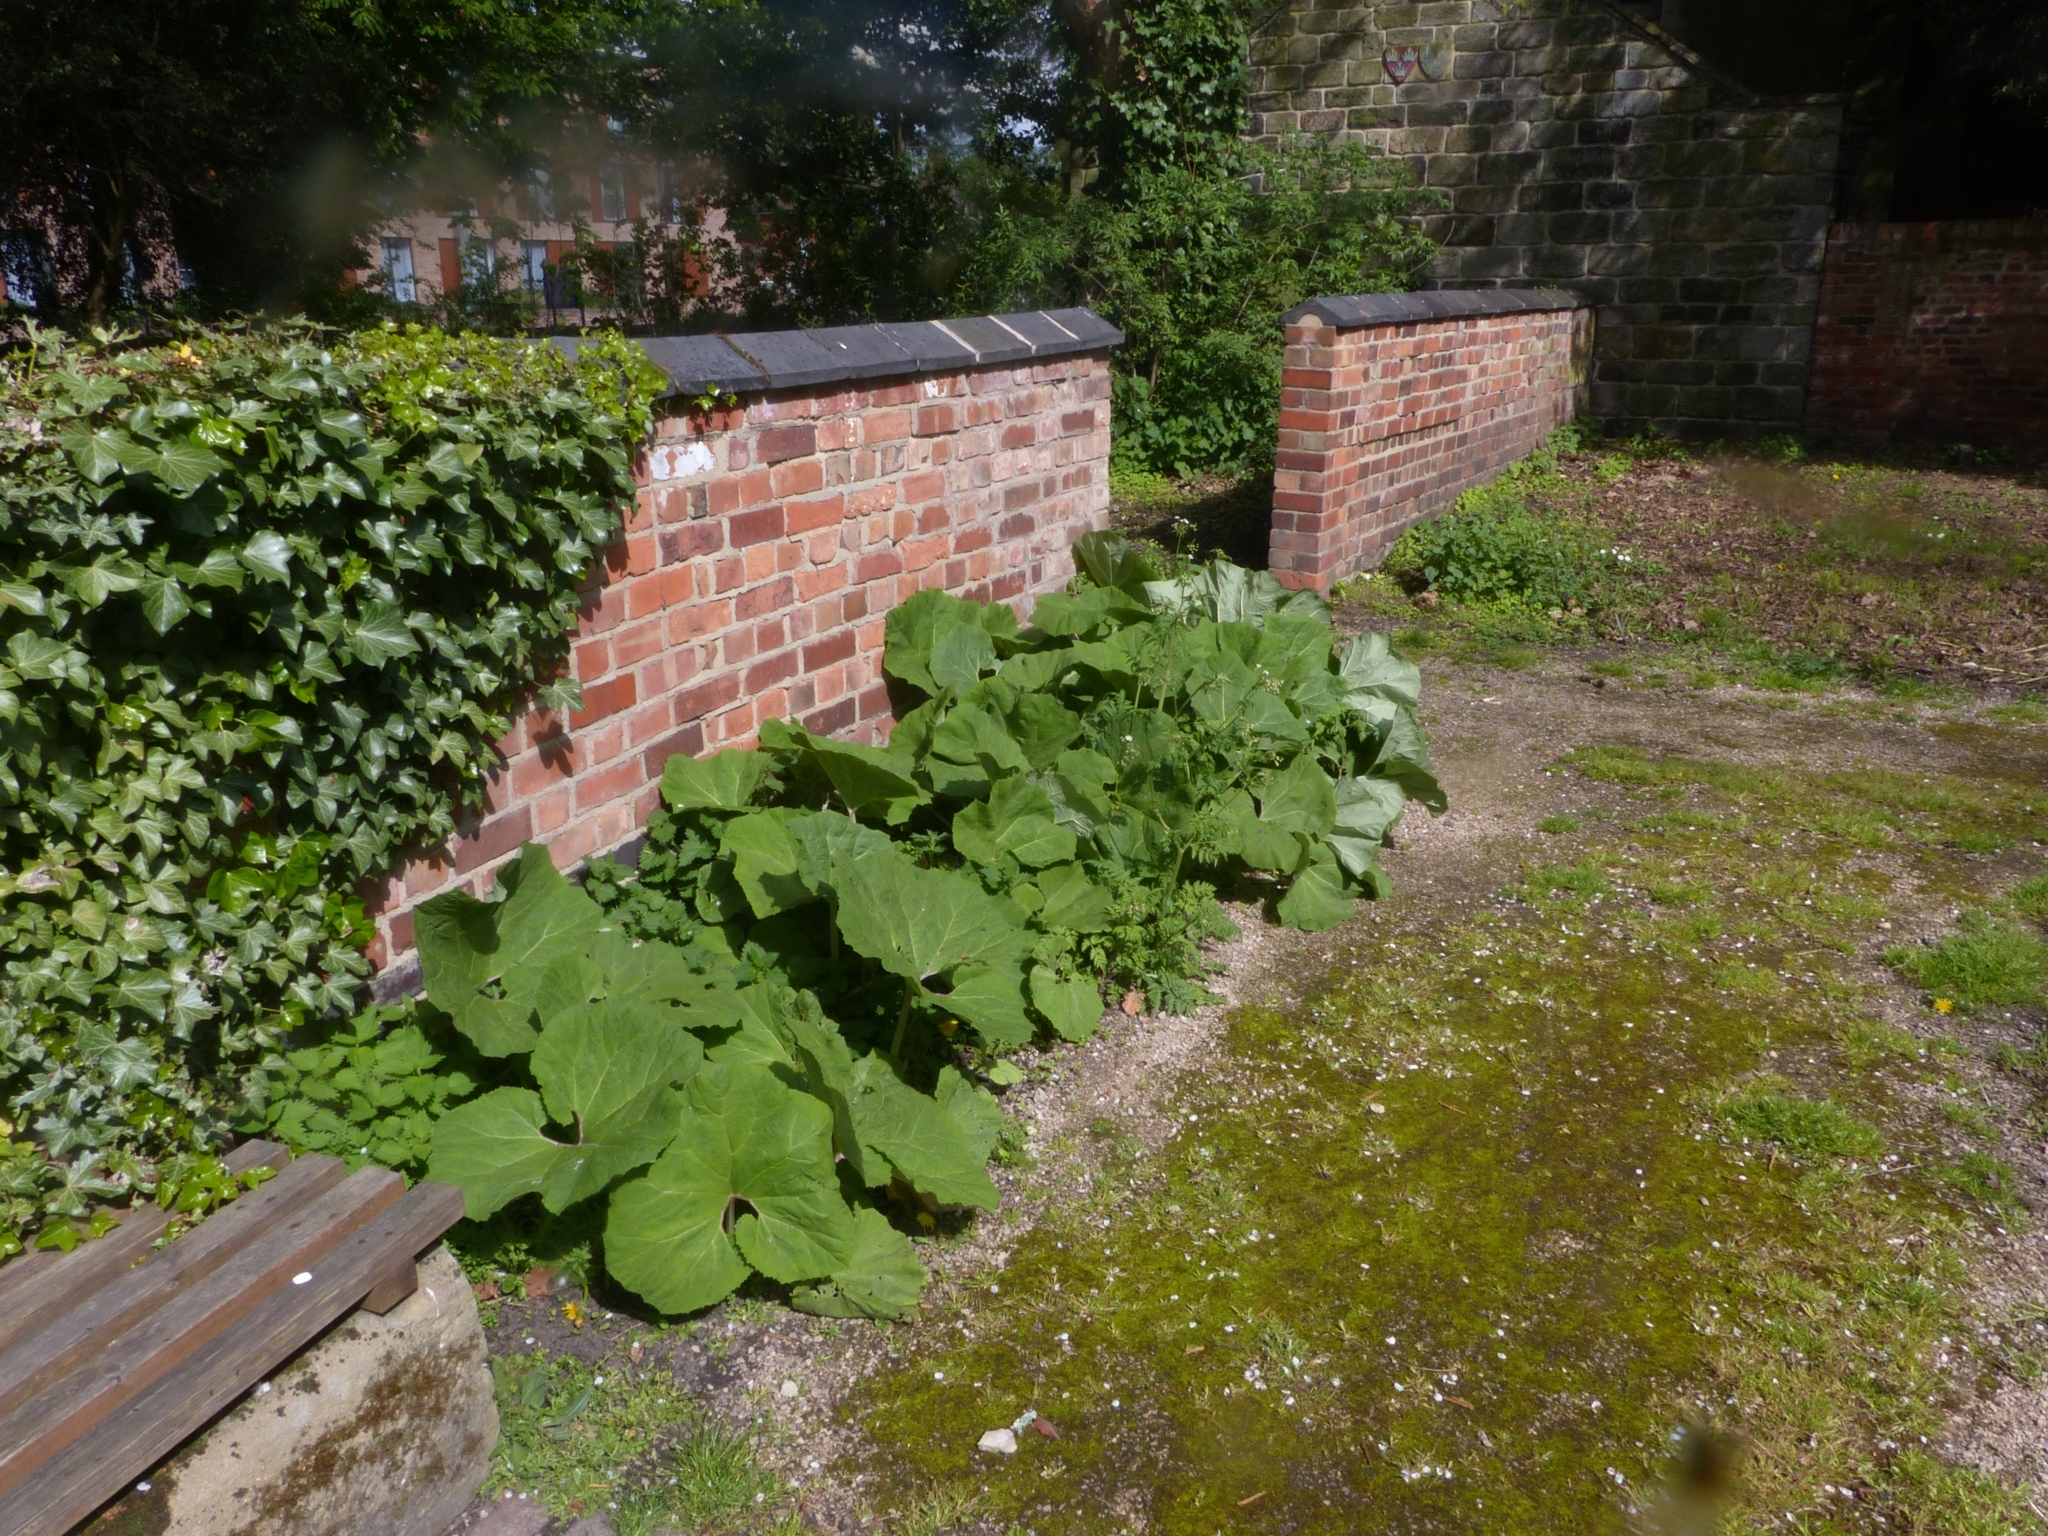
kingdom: Plantae
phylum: Tracheophyta
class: Magnoliopsida
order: Asterales
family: Asteraceae
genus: Petasites
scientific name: Petasites hybridus
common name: Butterbur
